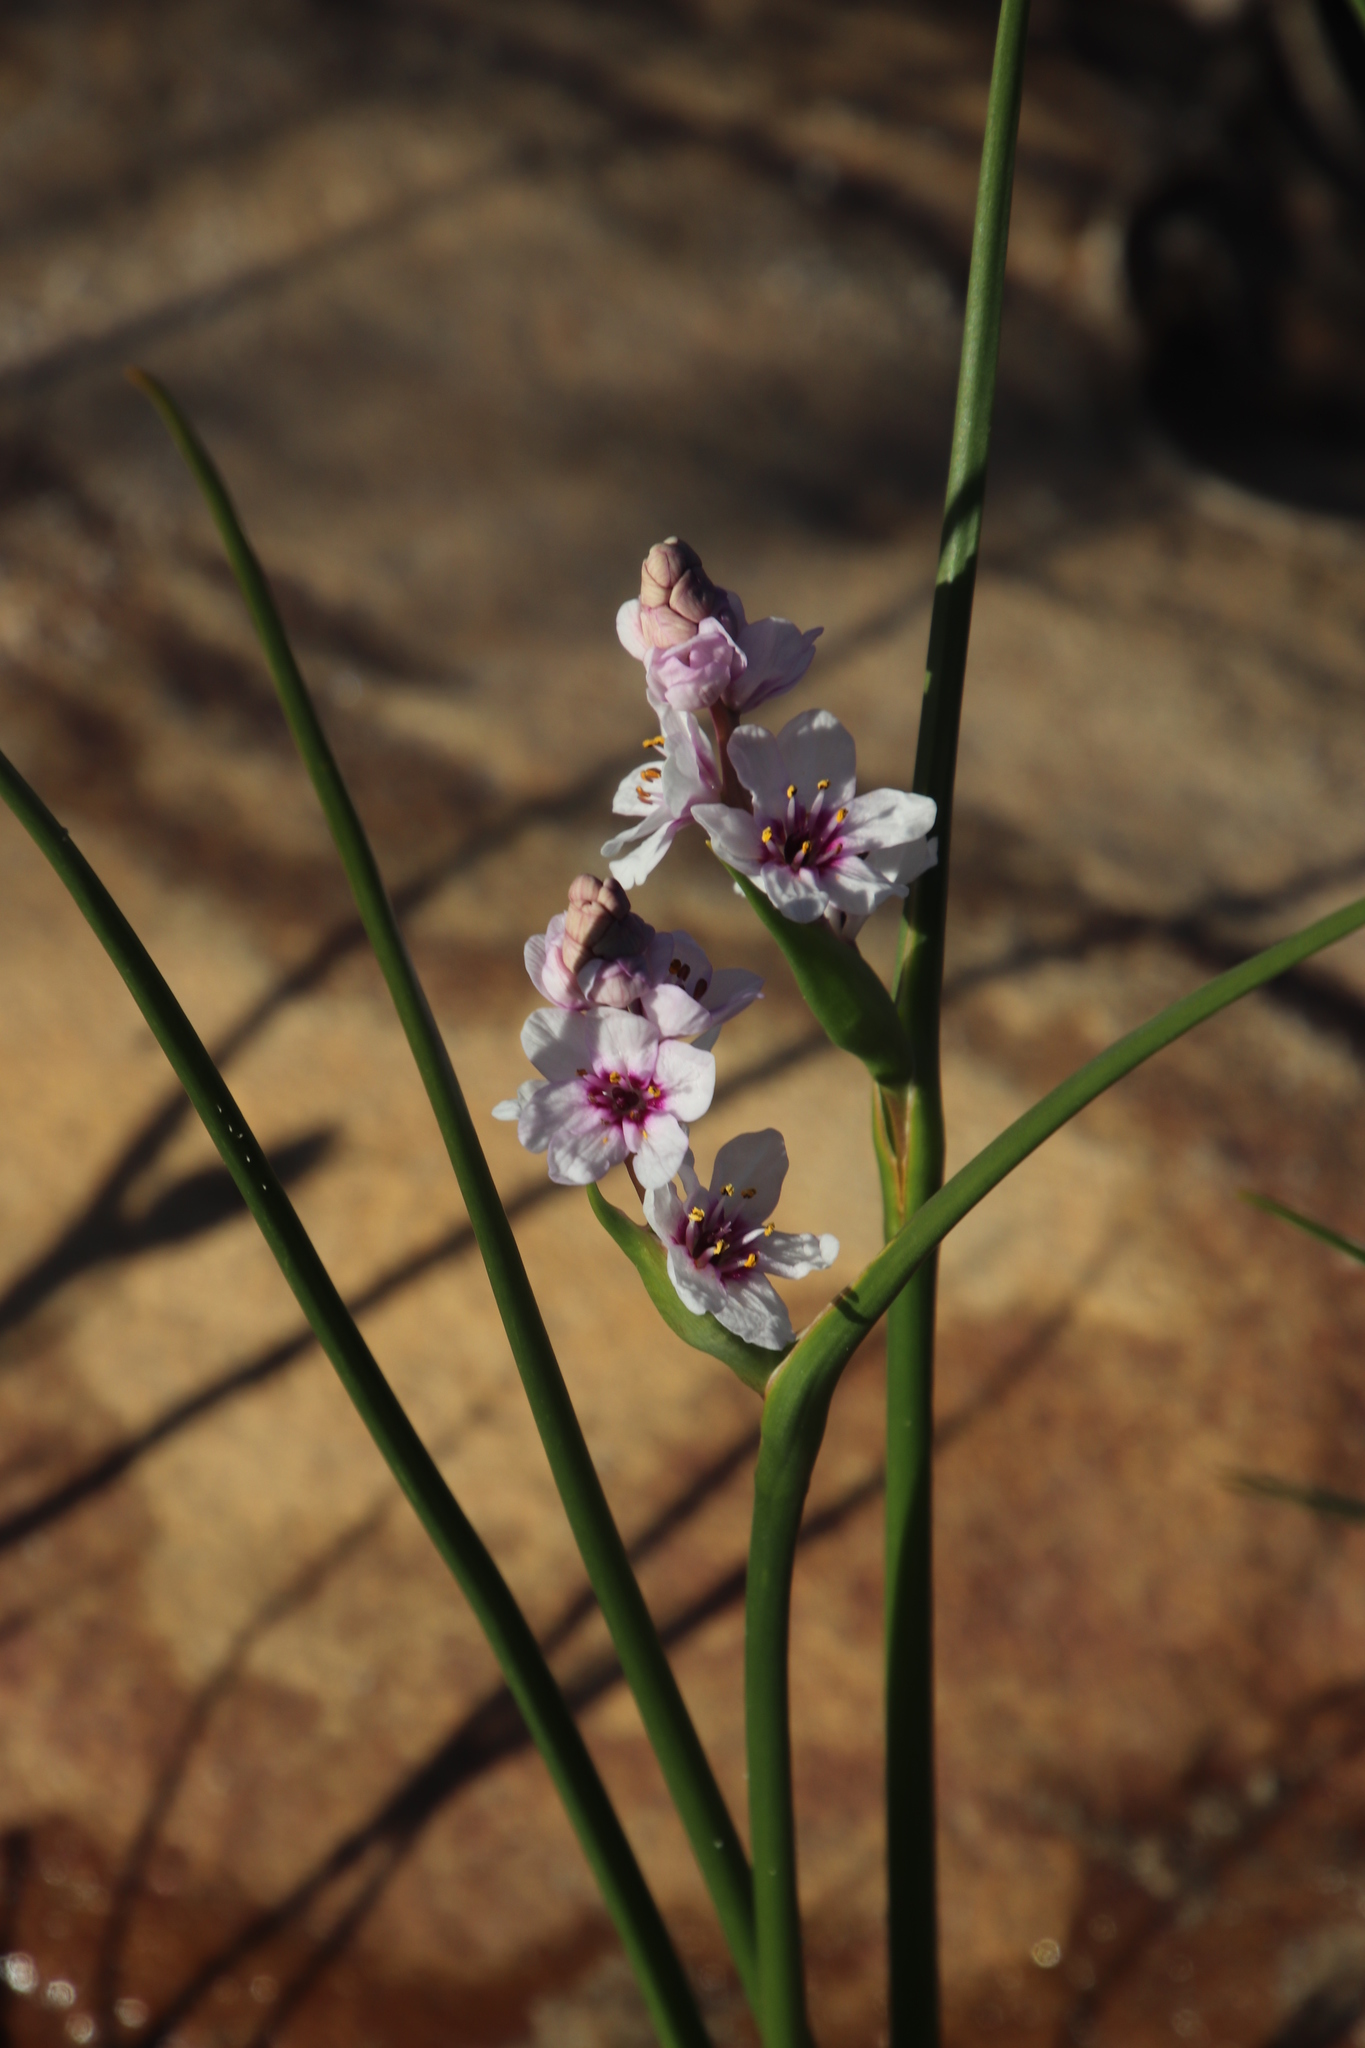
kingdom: Plantae
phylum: Tracheophyta
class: Liliopsida
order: Liliales
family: Colchicaceae
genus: Wurmbea
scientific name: Wurmbea stricta
